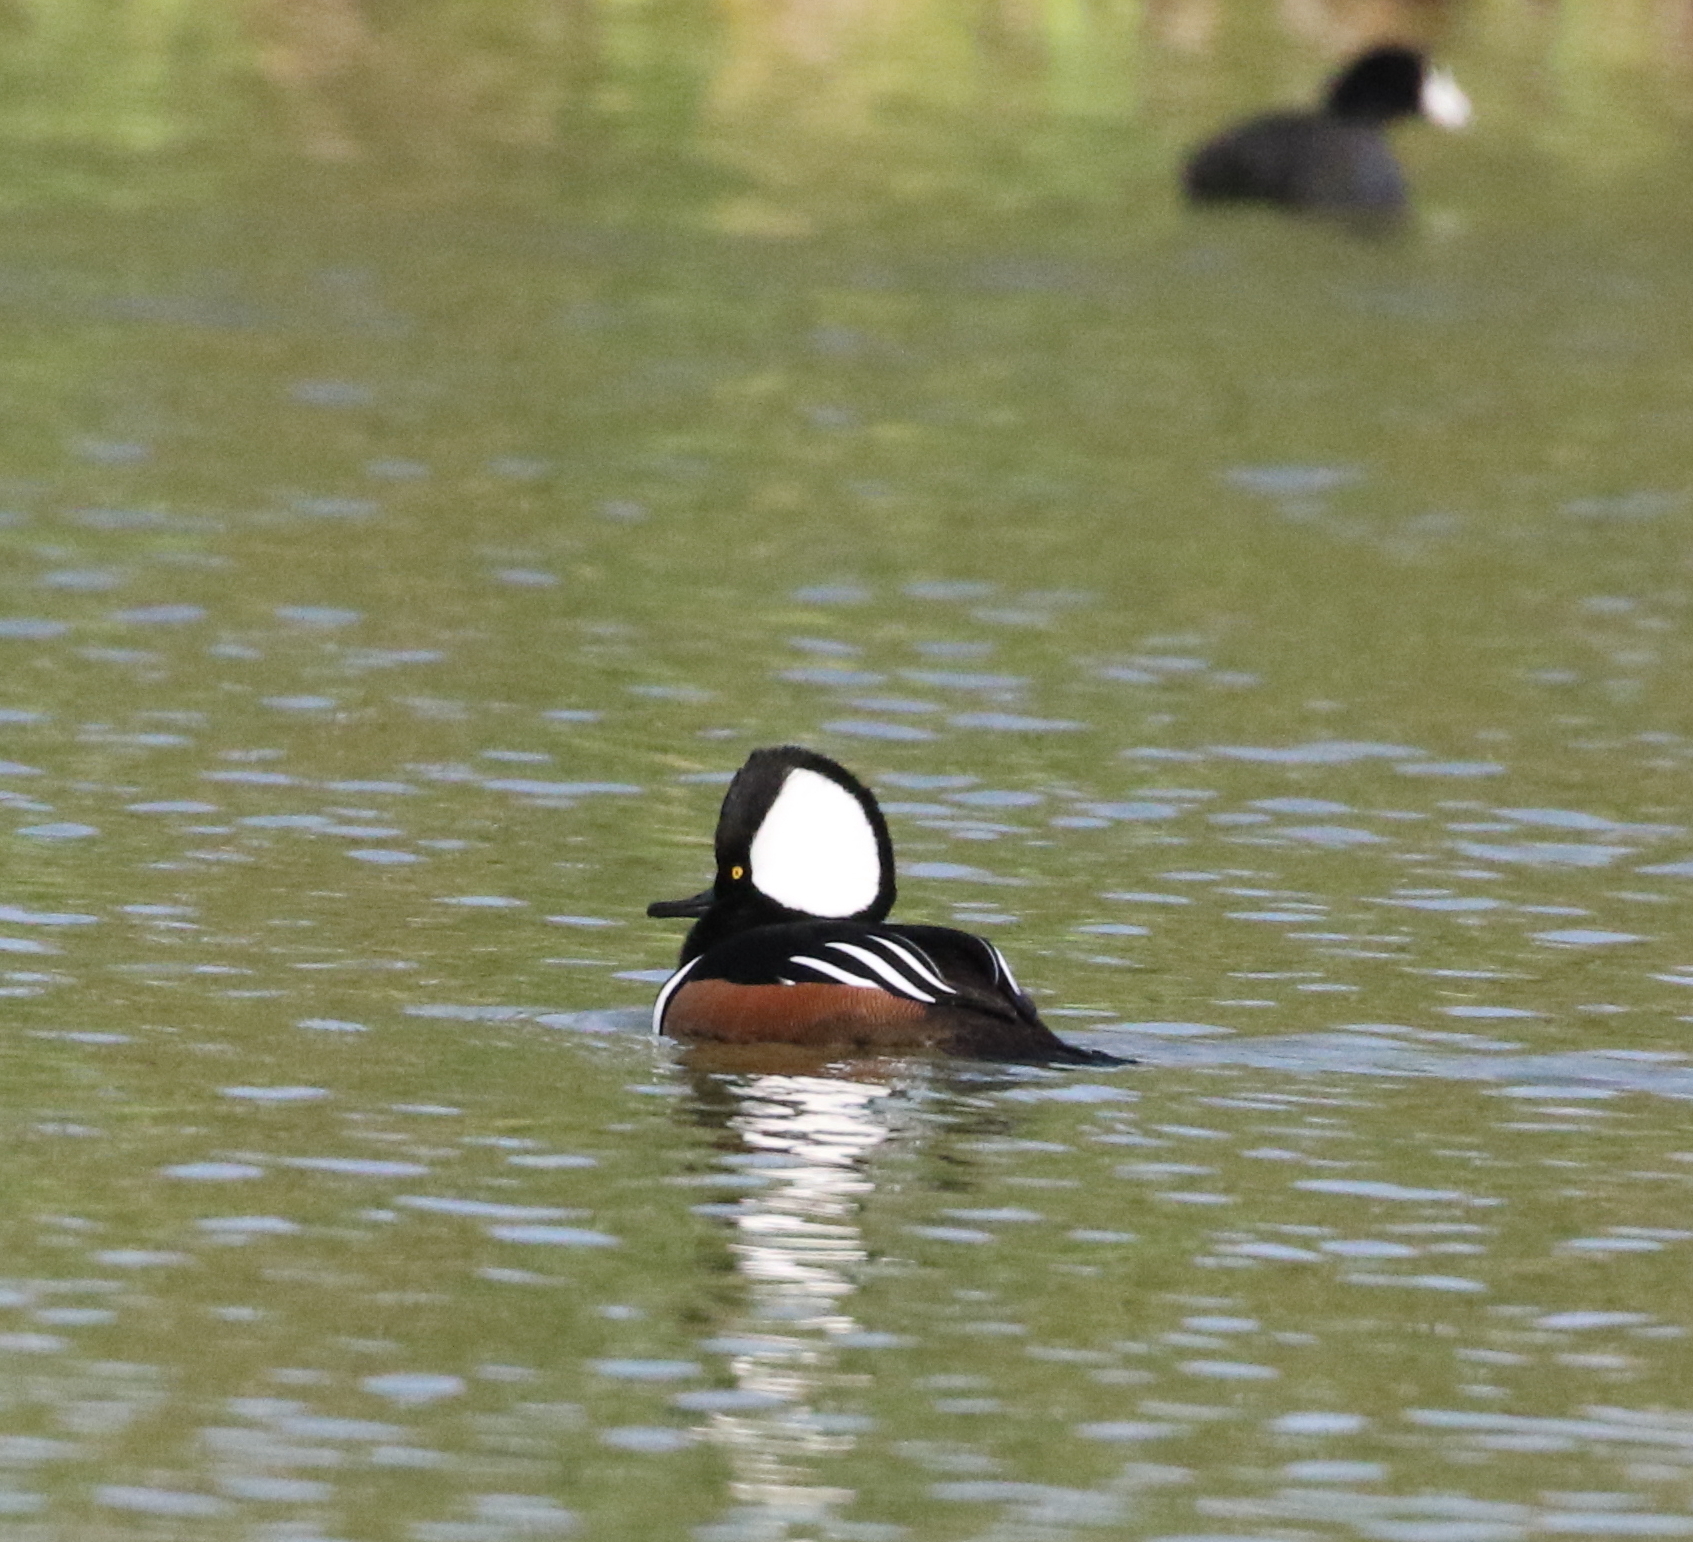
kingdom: Animalia
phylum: Chordata
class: Aves
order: Anseriformes
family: Anatidae
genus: Lophodytes
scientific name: Lophodytes cucullatus
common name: Hooded merganser
